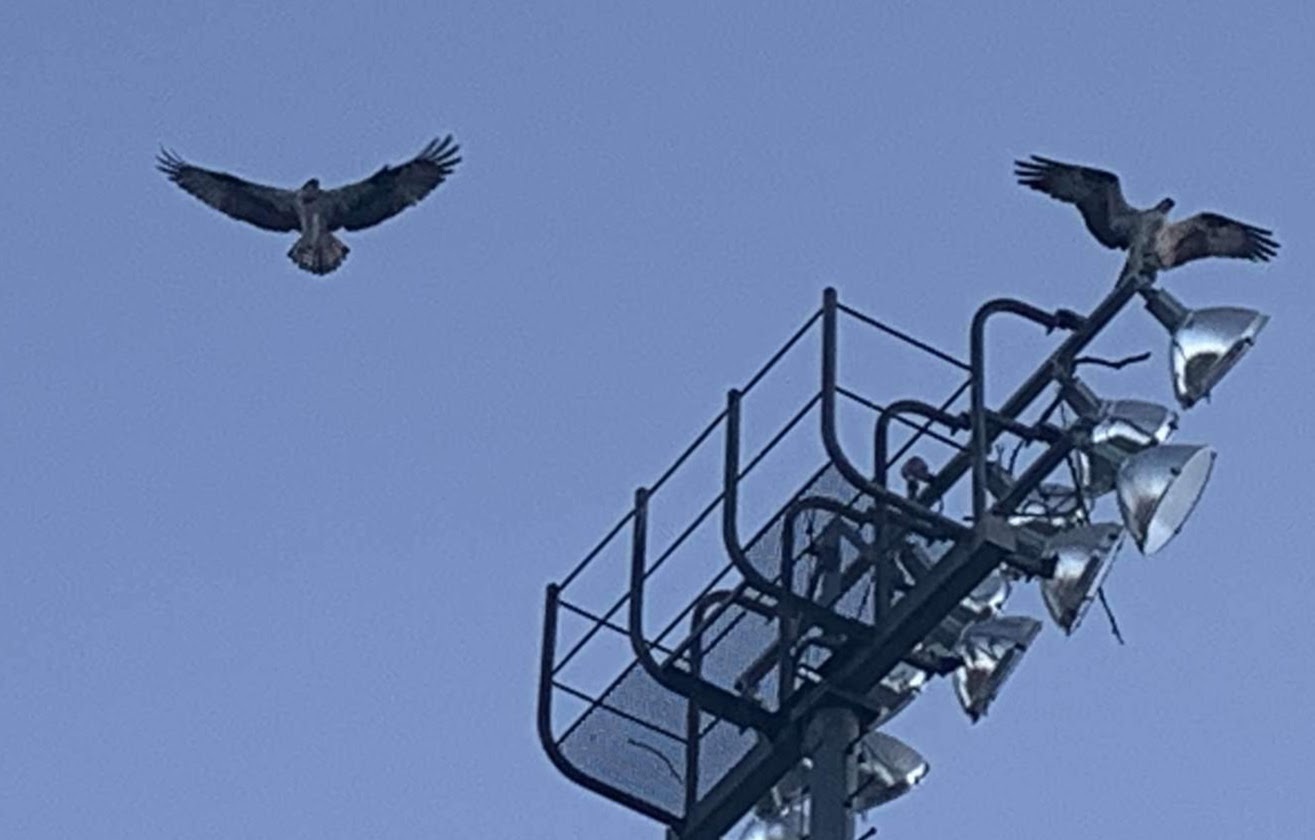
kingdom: Animalia
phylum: Chordata
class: Aves
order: Accipitriformes
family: Pandionidae
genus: Pandion
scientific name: Pandion haliaetus
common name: Osprey
